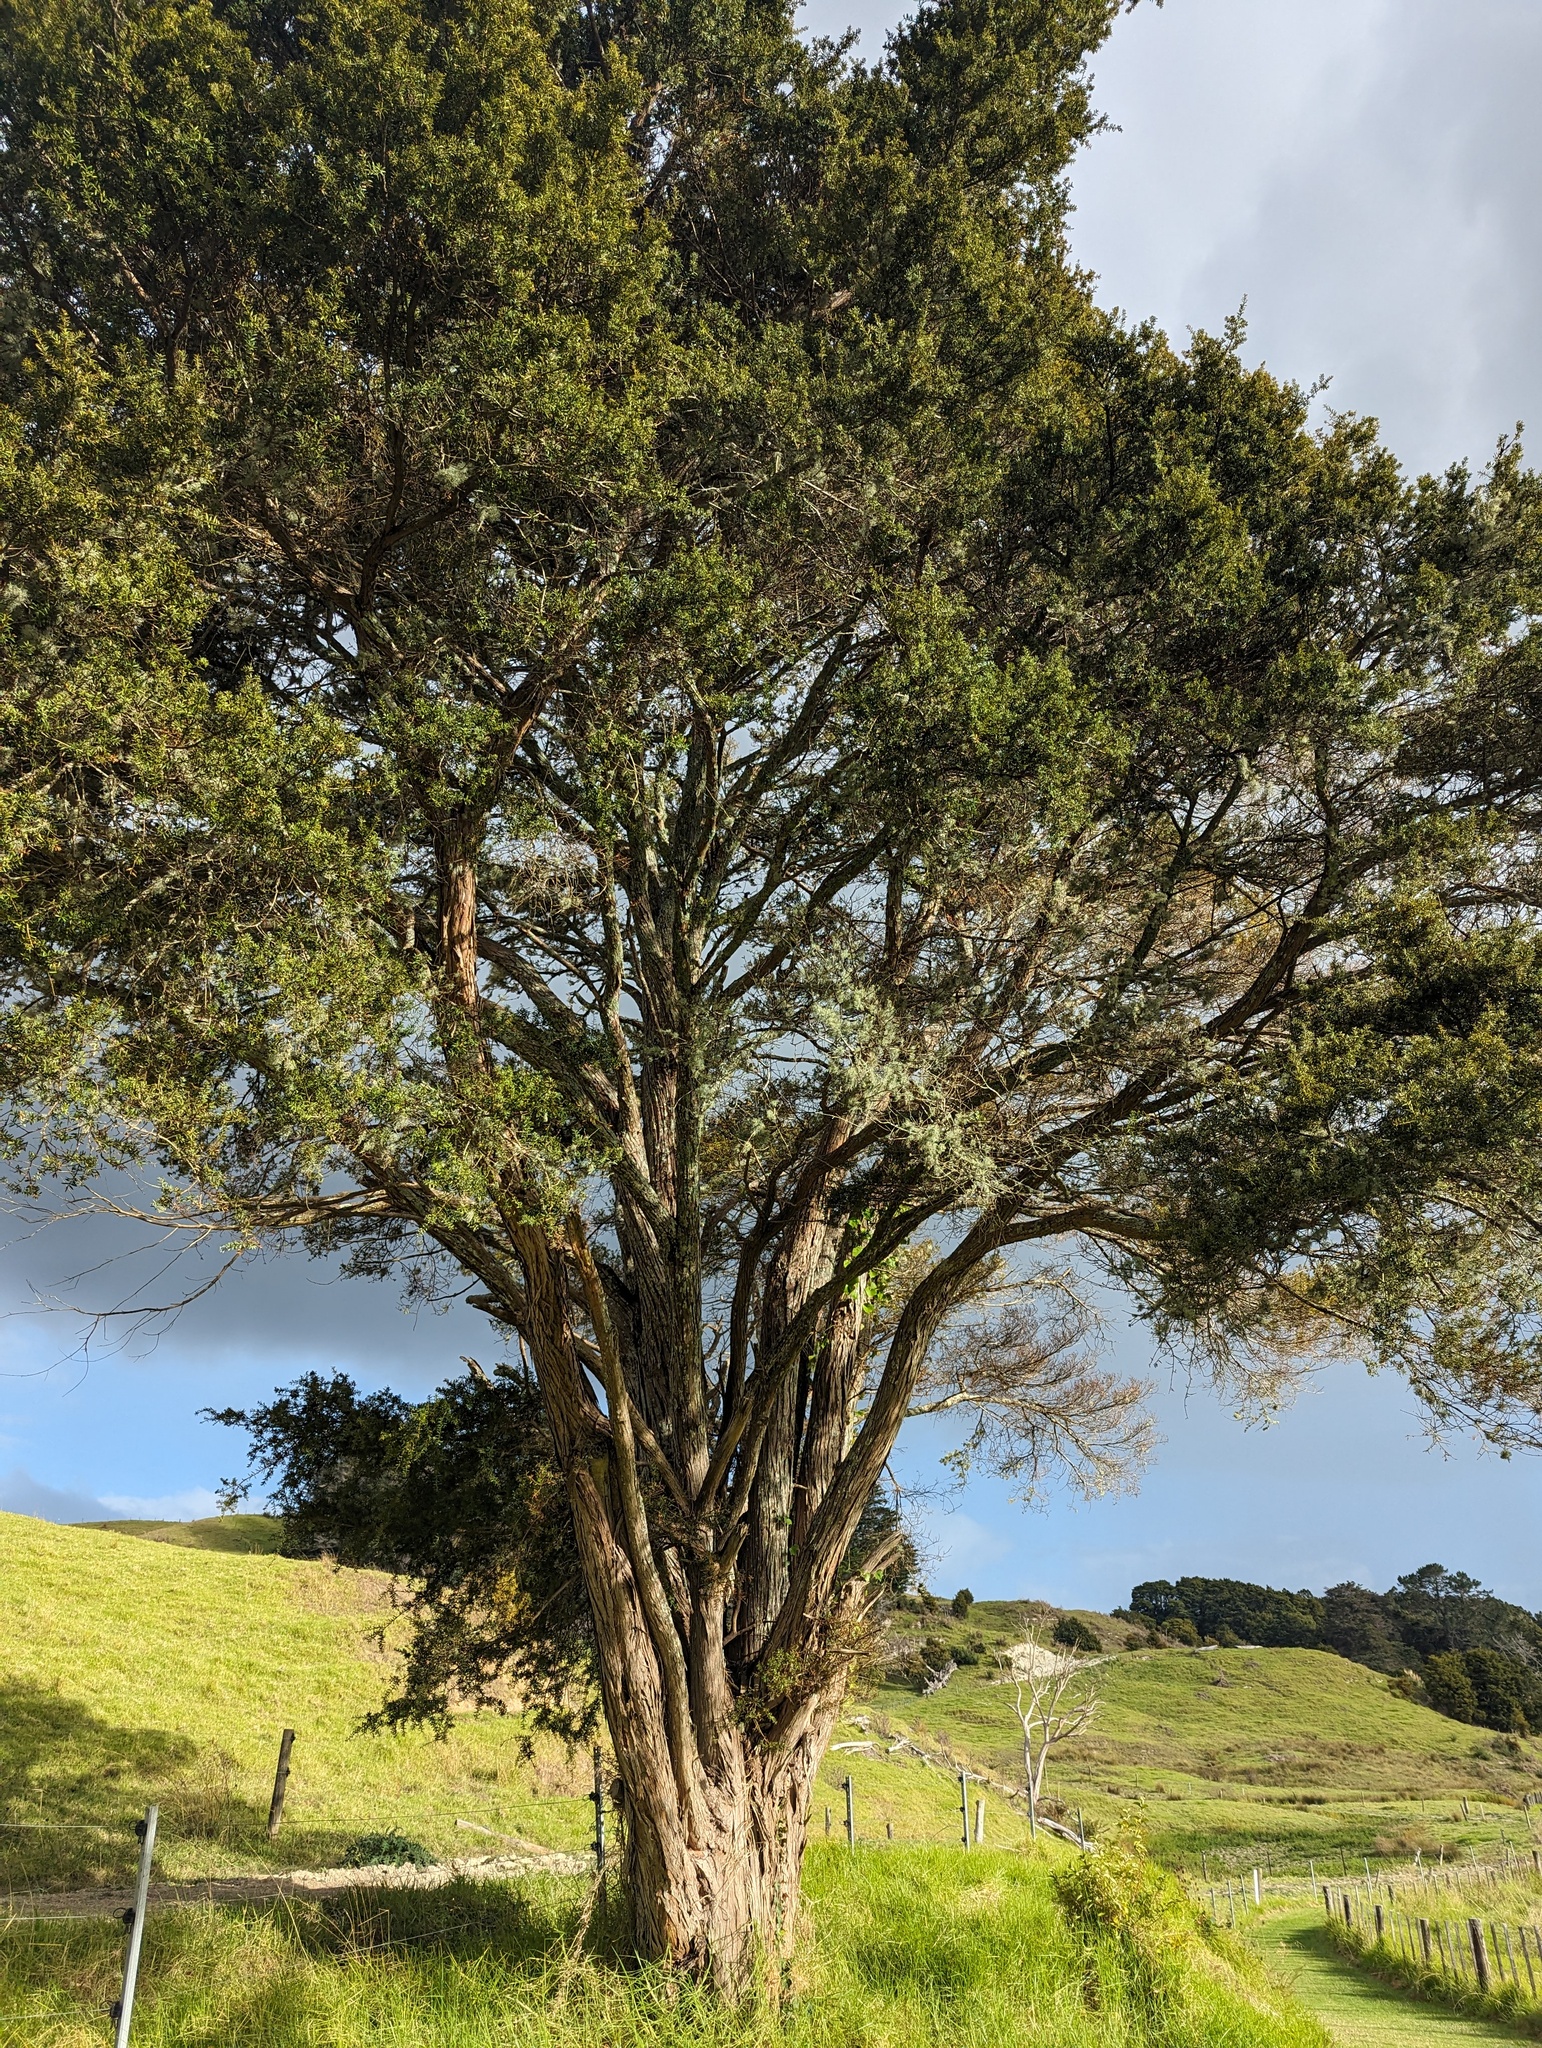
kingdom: Plantae
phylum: Tracheophyta
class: Pinopsida
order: Pinales
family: Podocarpaceae
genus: Podocarpus
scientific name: Podocarpus totara
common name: Totara
